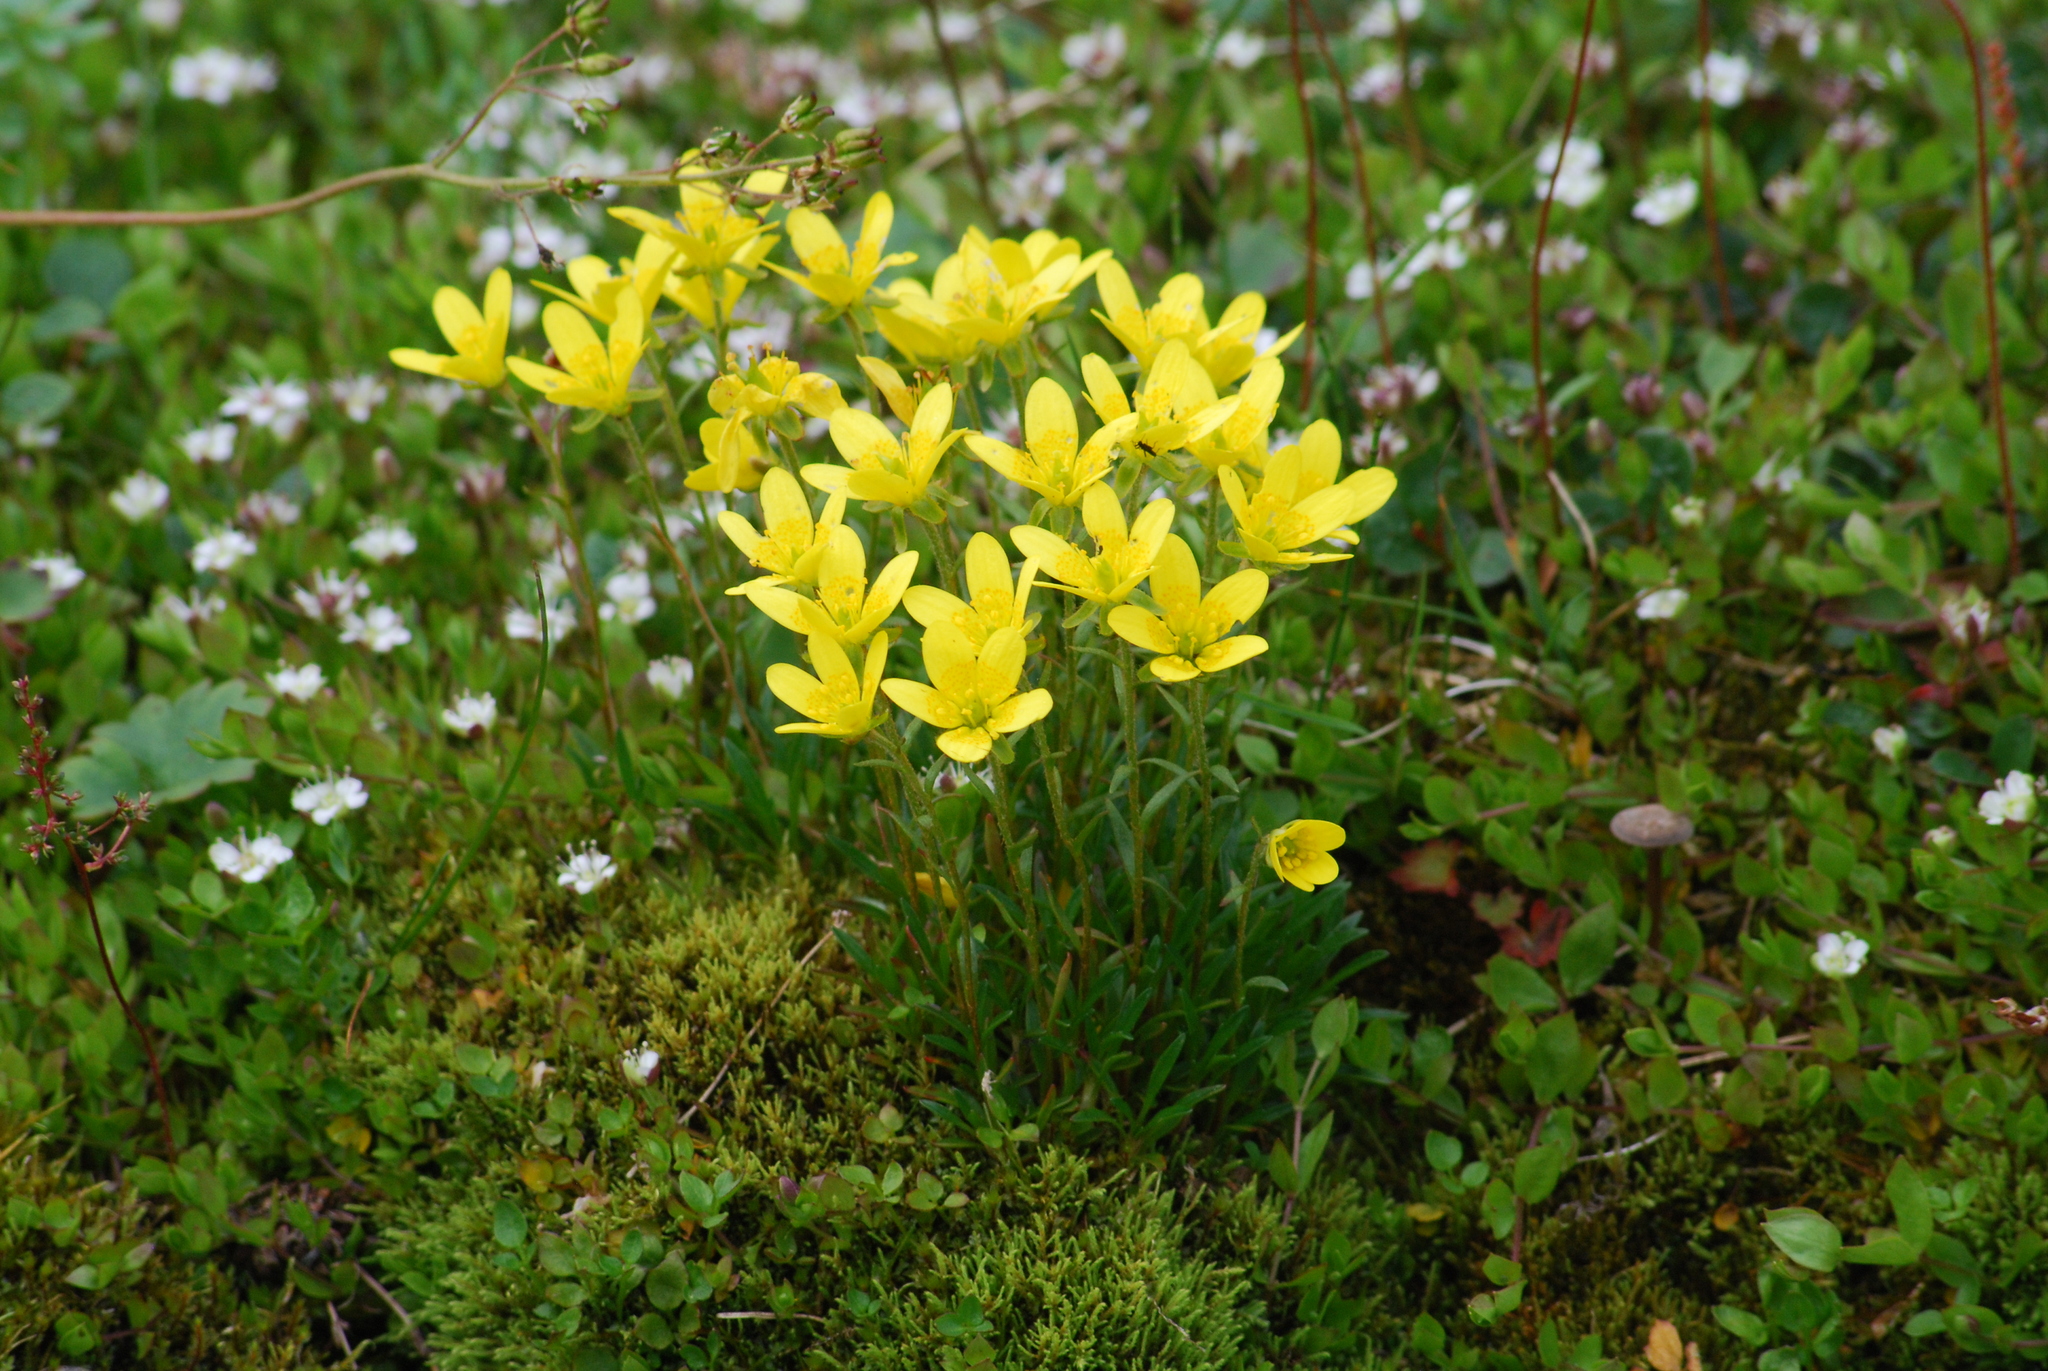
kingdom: Plantae
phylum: Tracheophyta
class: Magnoliopsida
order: Saxifragales
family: Saxifragaceae
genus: Saxifraga
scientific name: Saxifraga hirculus
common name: Yellow marsh saxifrage
